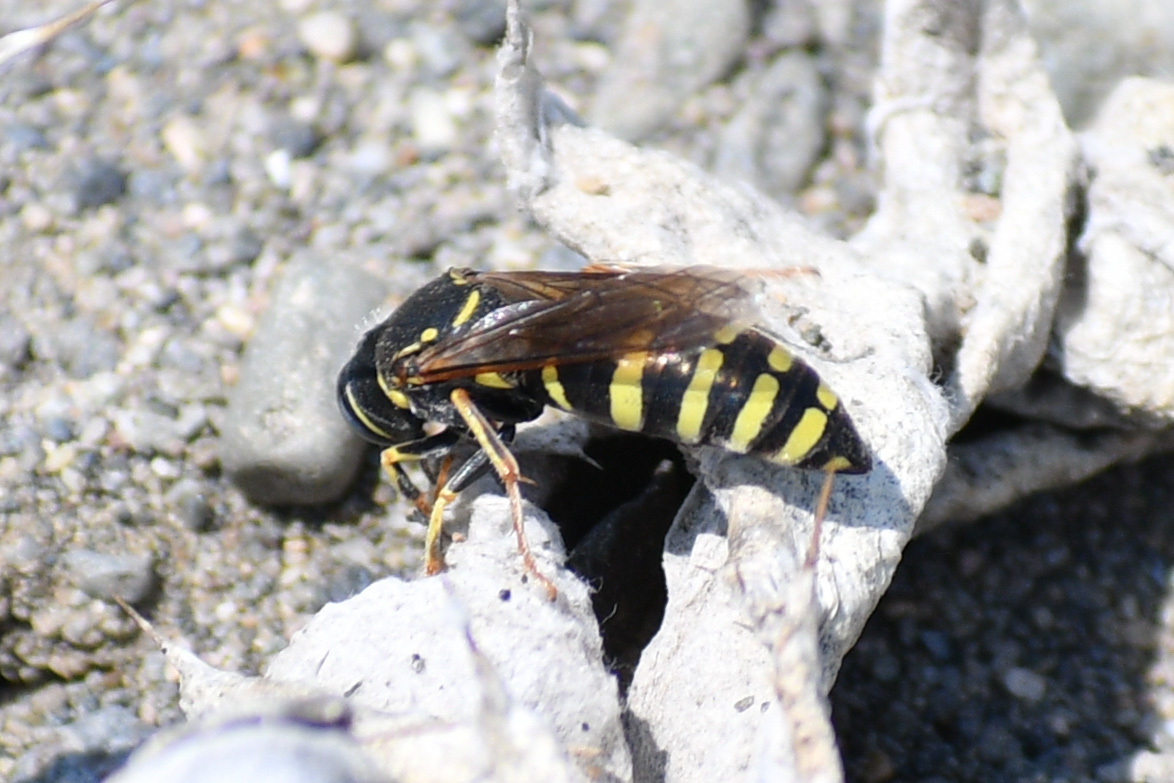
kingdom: Animalia
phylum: Arthropoda
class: Insecta
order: Hymenoptera
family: Crabronidae
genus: Bicyrtes
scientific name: Bicyrtes ventralis
